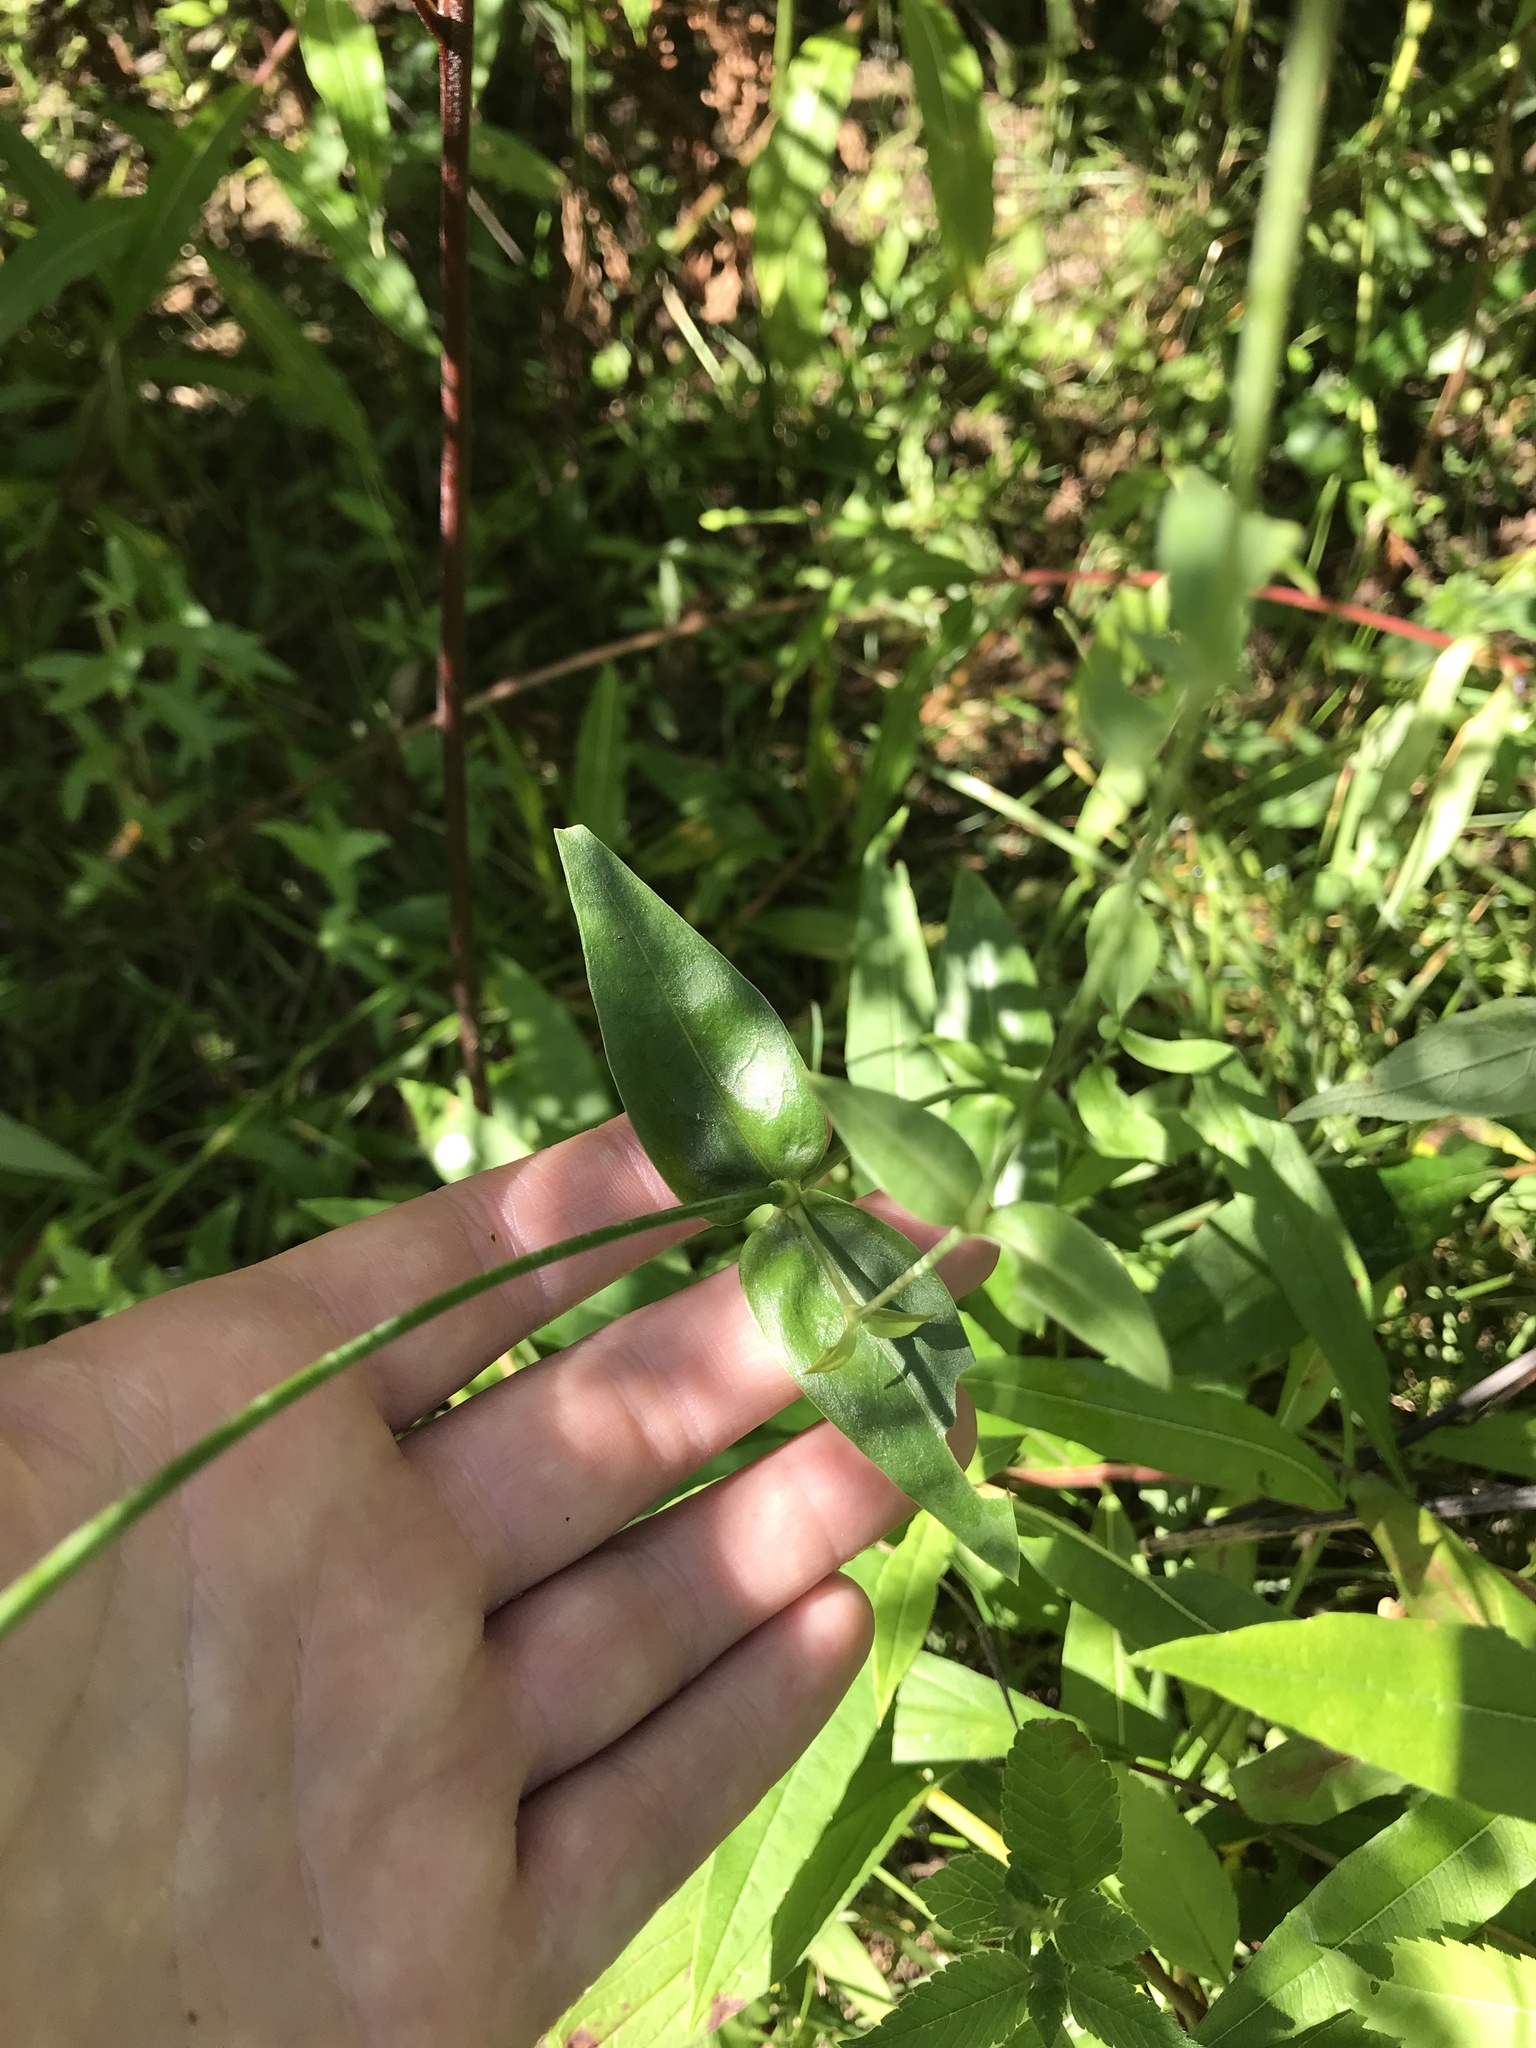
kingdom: Plantae
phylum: Tracheophyta
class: Magnoliopsida
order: Caryophyllales
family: Caryophyllaceae
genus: Silene
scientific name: Silene vulgaris
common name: Bladder campion
